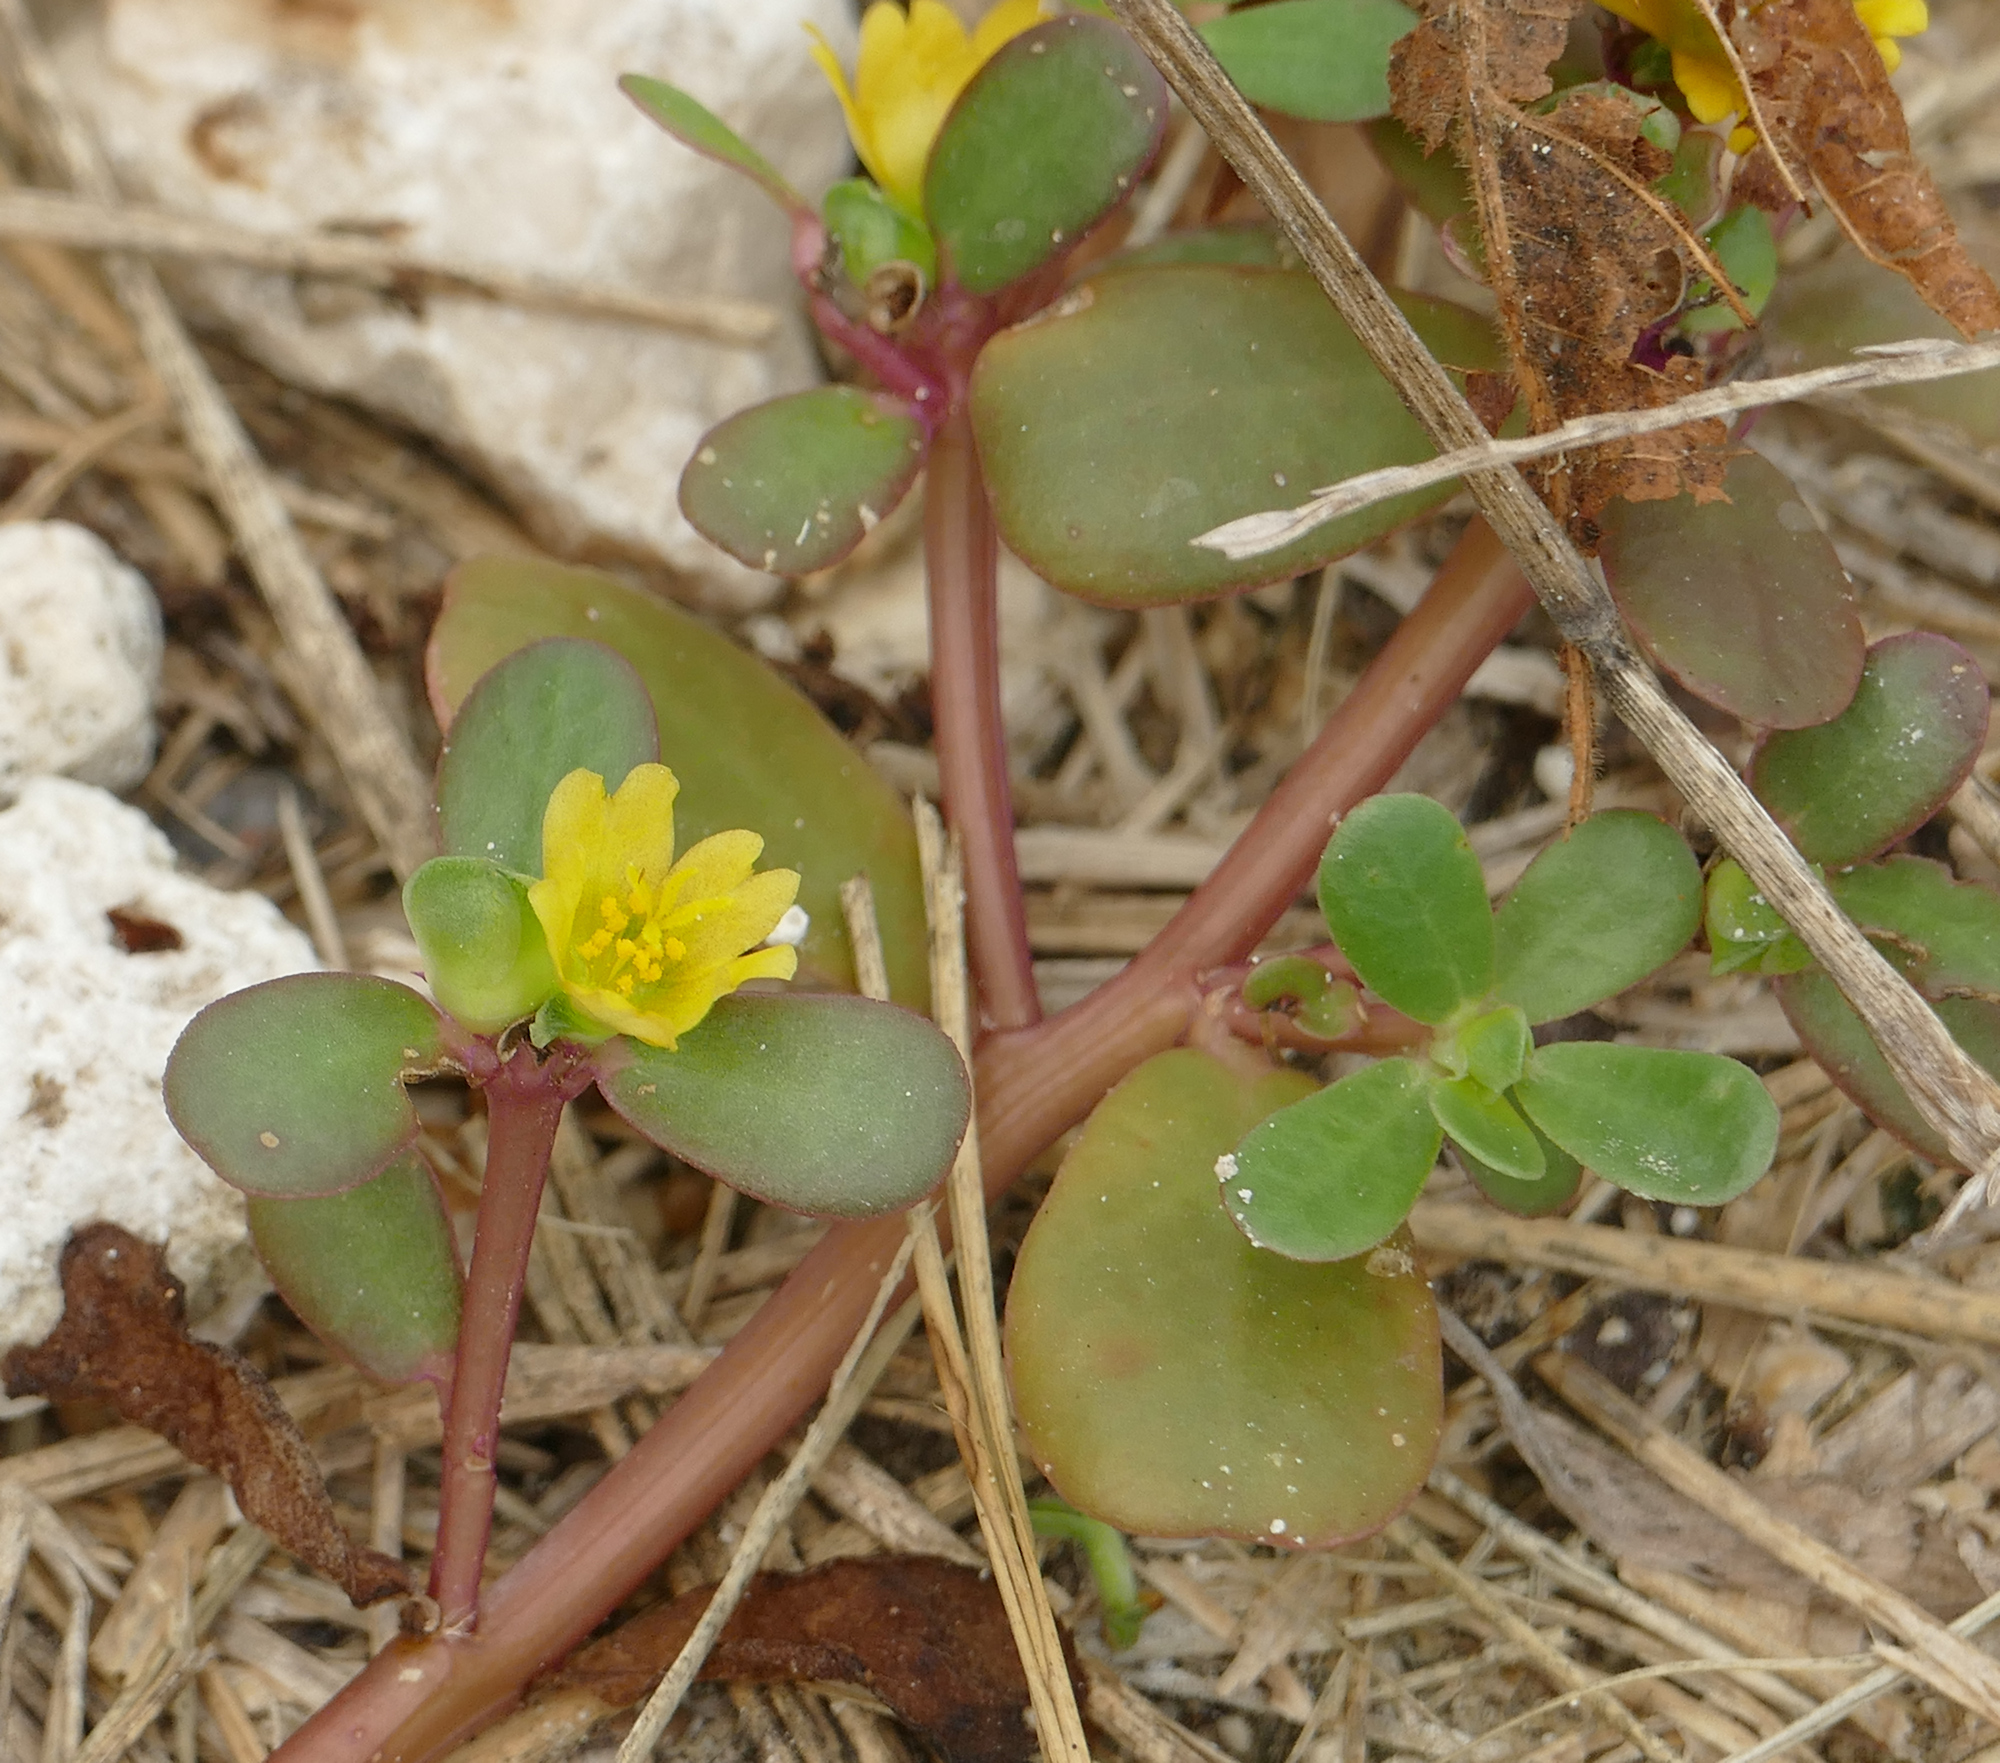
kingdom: Plantae
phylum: Tracheophyta
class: Magnoliopsida
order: Caryophyllales
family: Portulacaceae
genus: Portulaca
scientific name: Portulaca oleracea
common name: Common purslane
